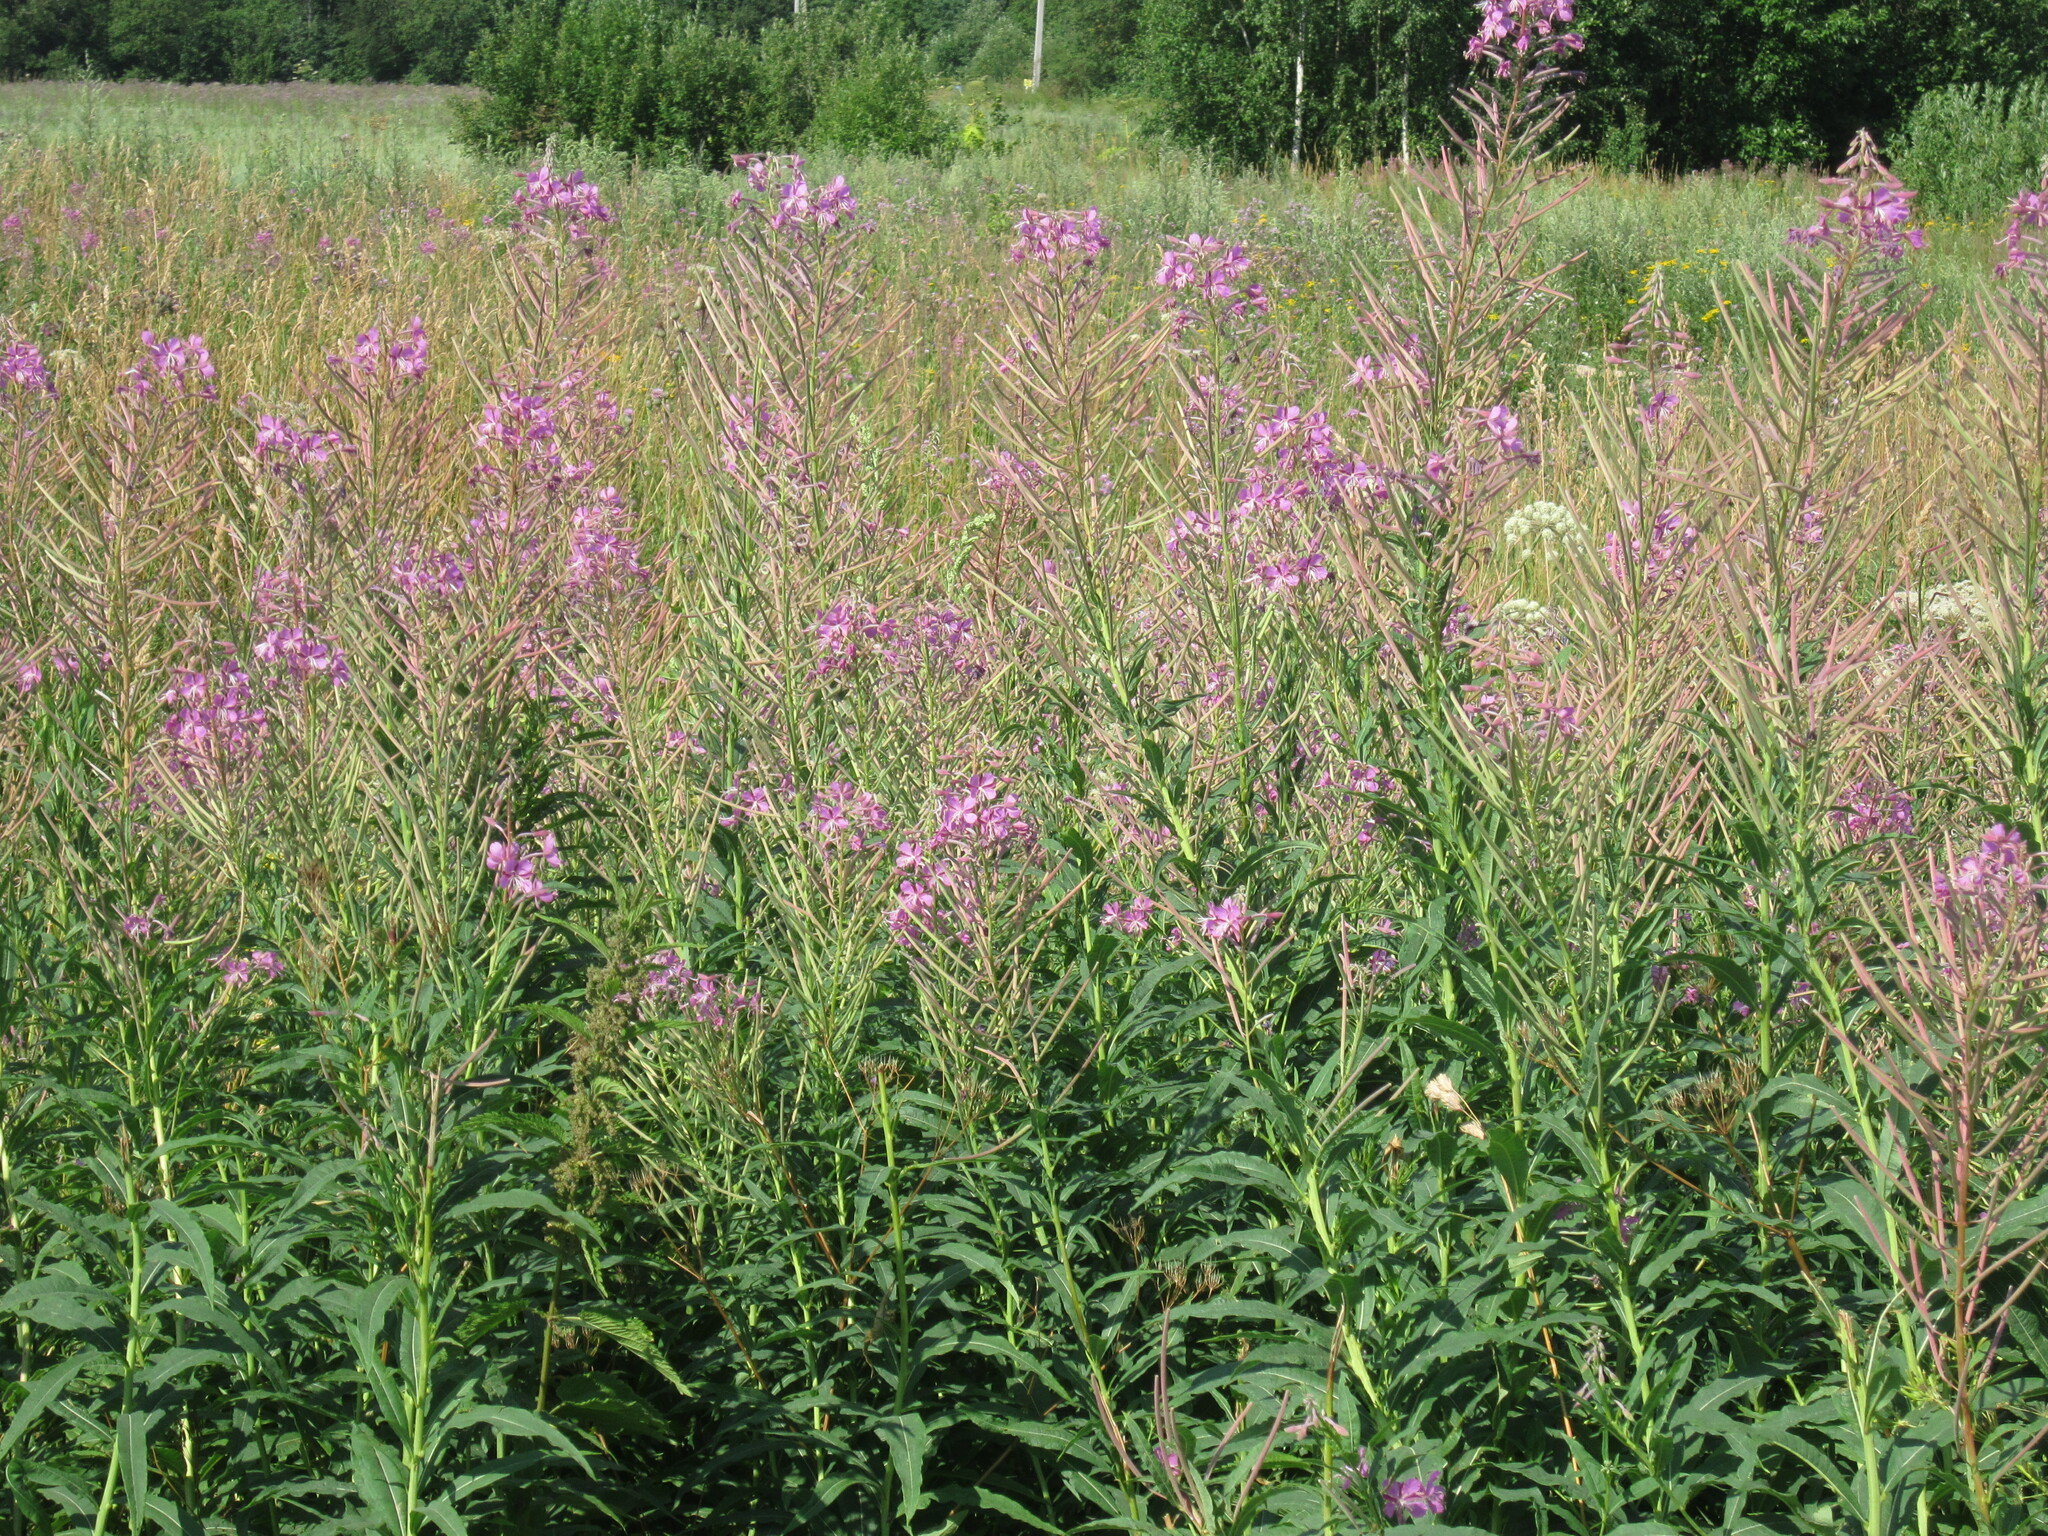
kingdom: Plantae
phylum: Tracheophyta
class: Magnoliopsida
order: Myrtales
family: Onagraceae
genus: Chamaenerion
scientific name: Chamaenerion angustifolium
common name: Fireweed
